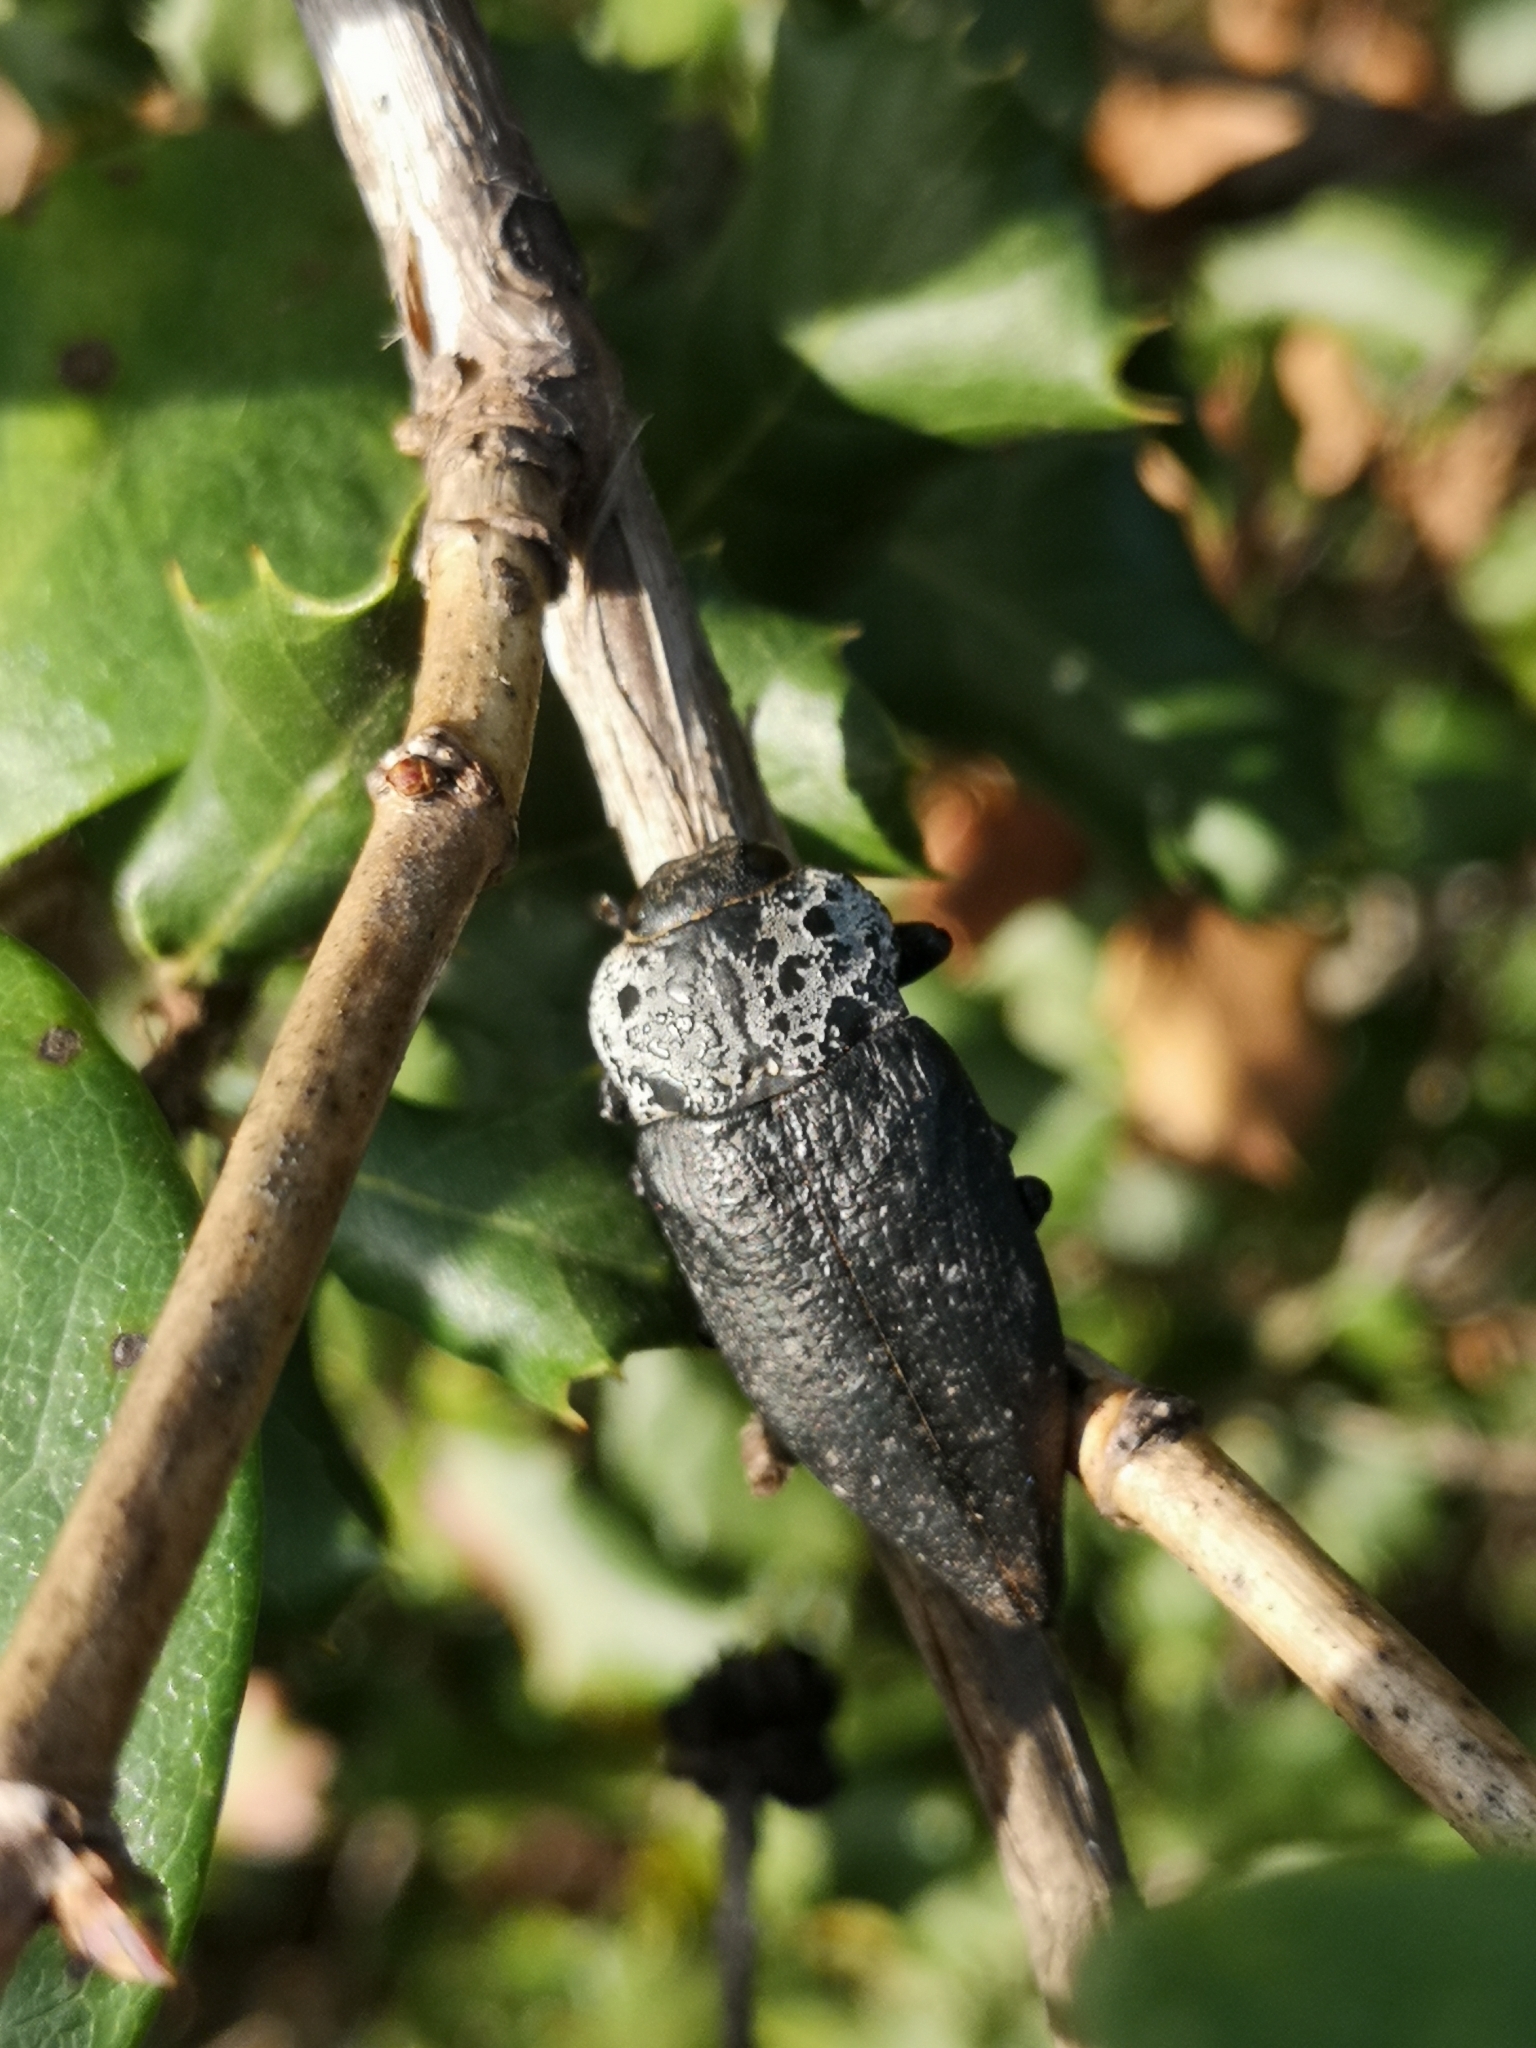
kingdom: Animalia
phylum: Arthropoda
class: Insecta
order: Coleoptera
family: Buprestidae
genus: Capnodis
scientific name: Capnodis tenebrionis
